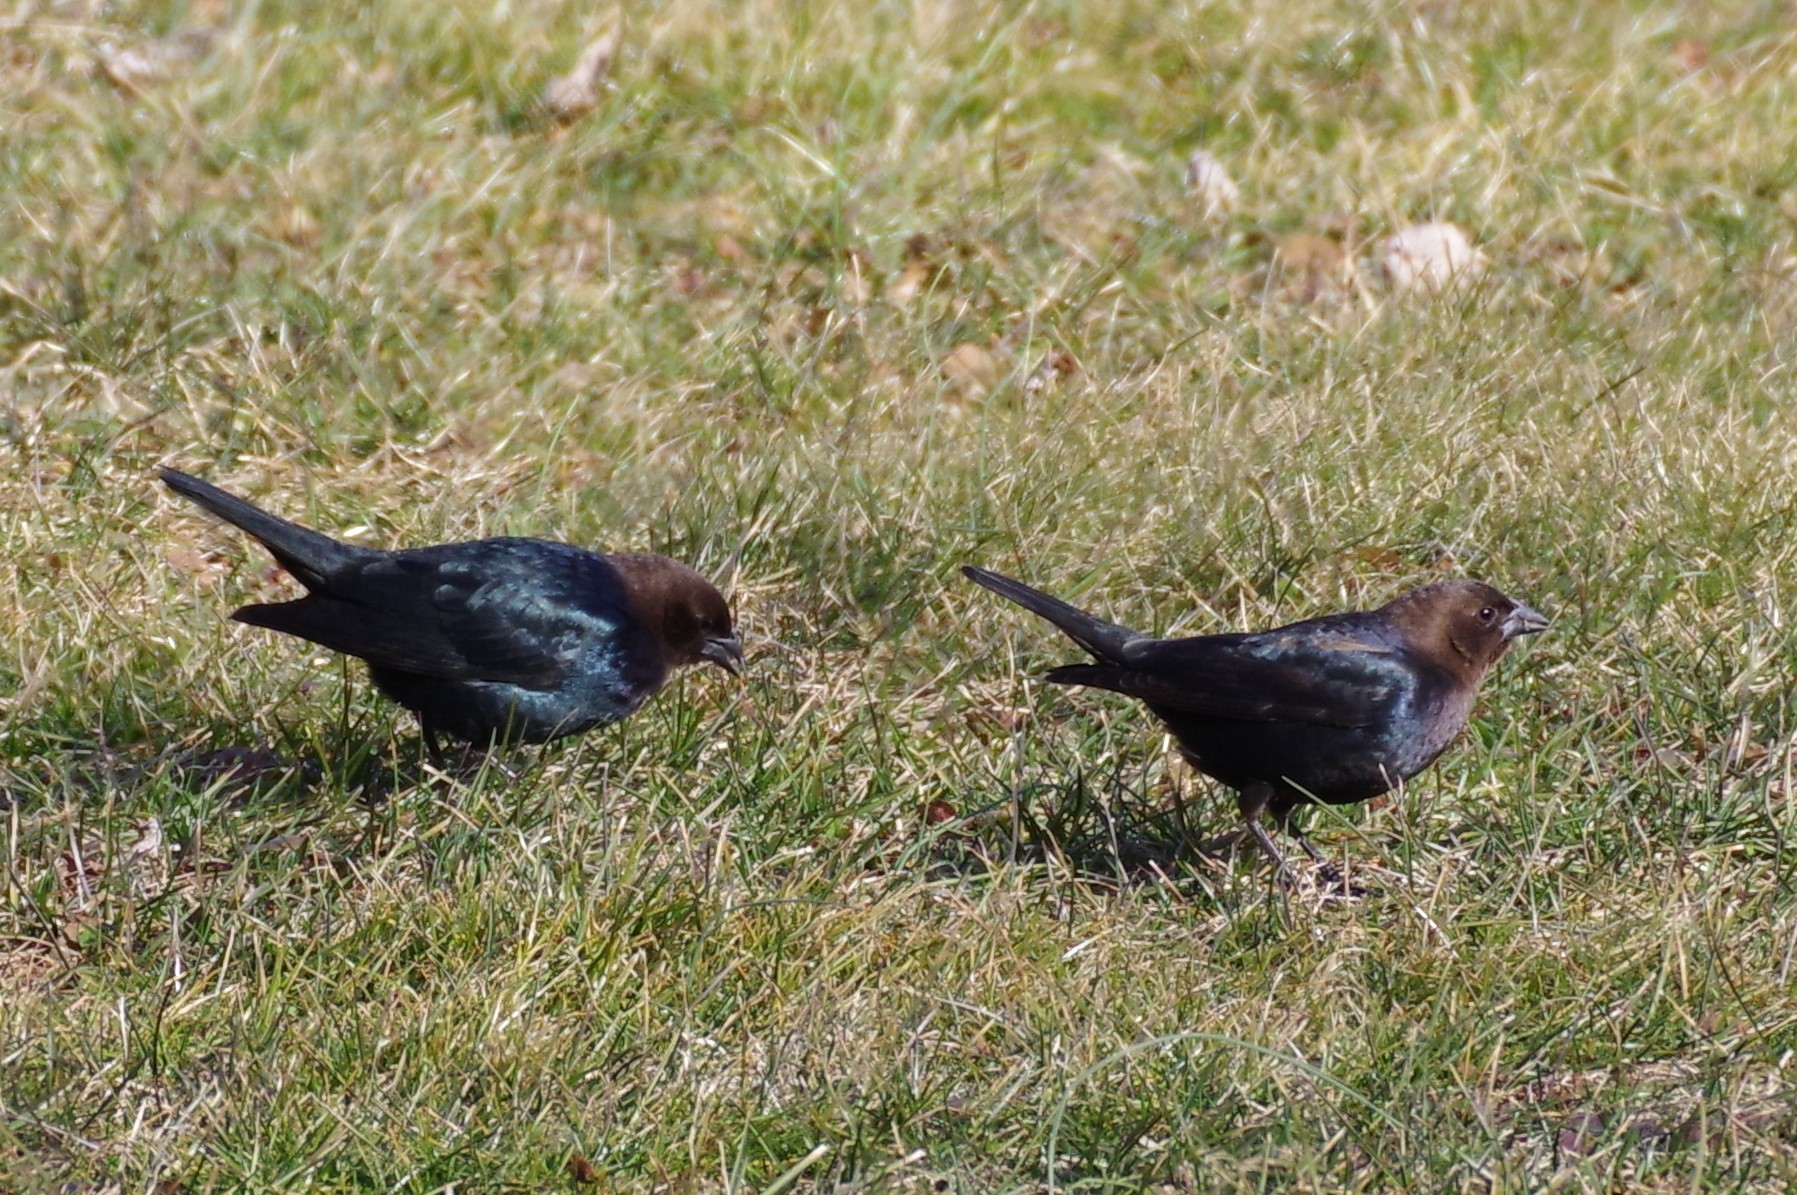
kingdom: Animalia
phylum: Chordata
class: Aves
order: Passeriformes
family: Icteridae
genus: Molothrus
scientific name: Molothrus ater
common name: Brown-headed cowbird
